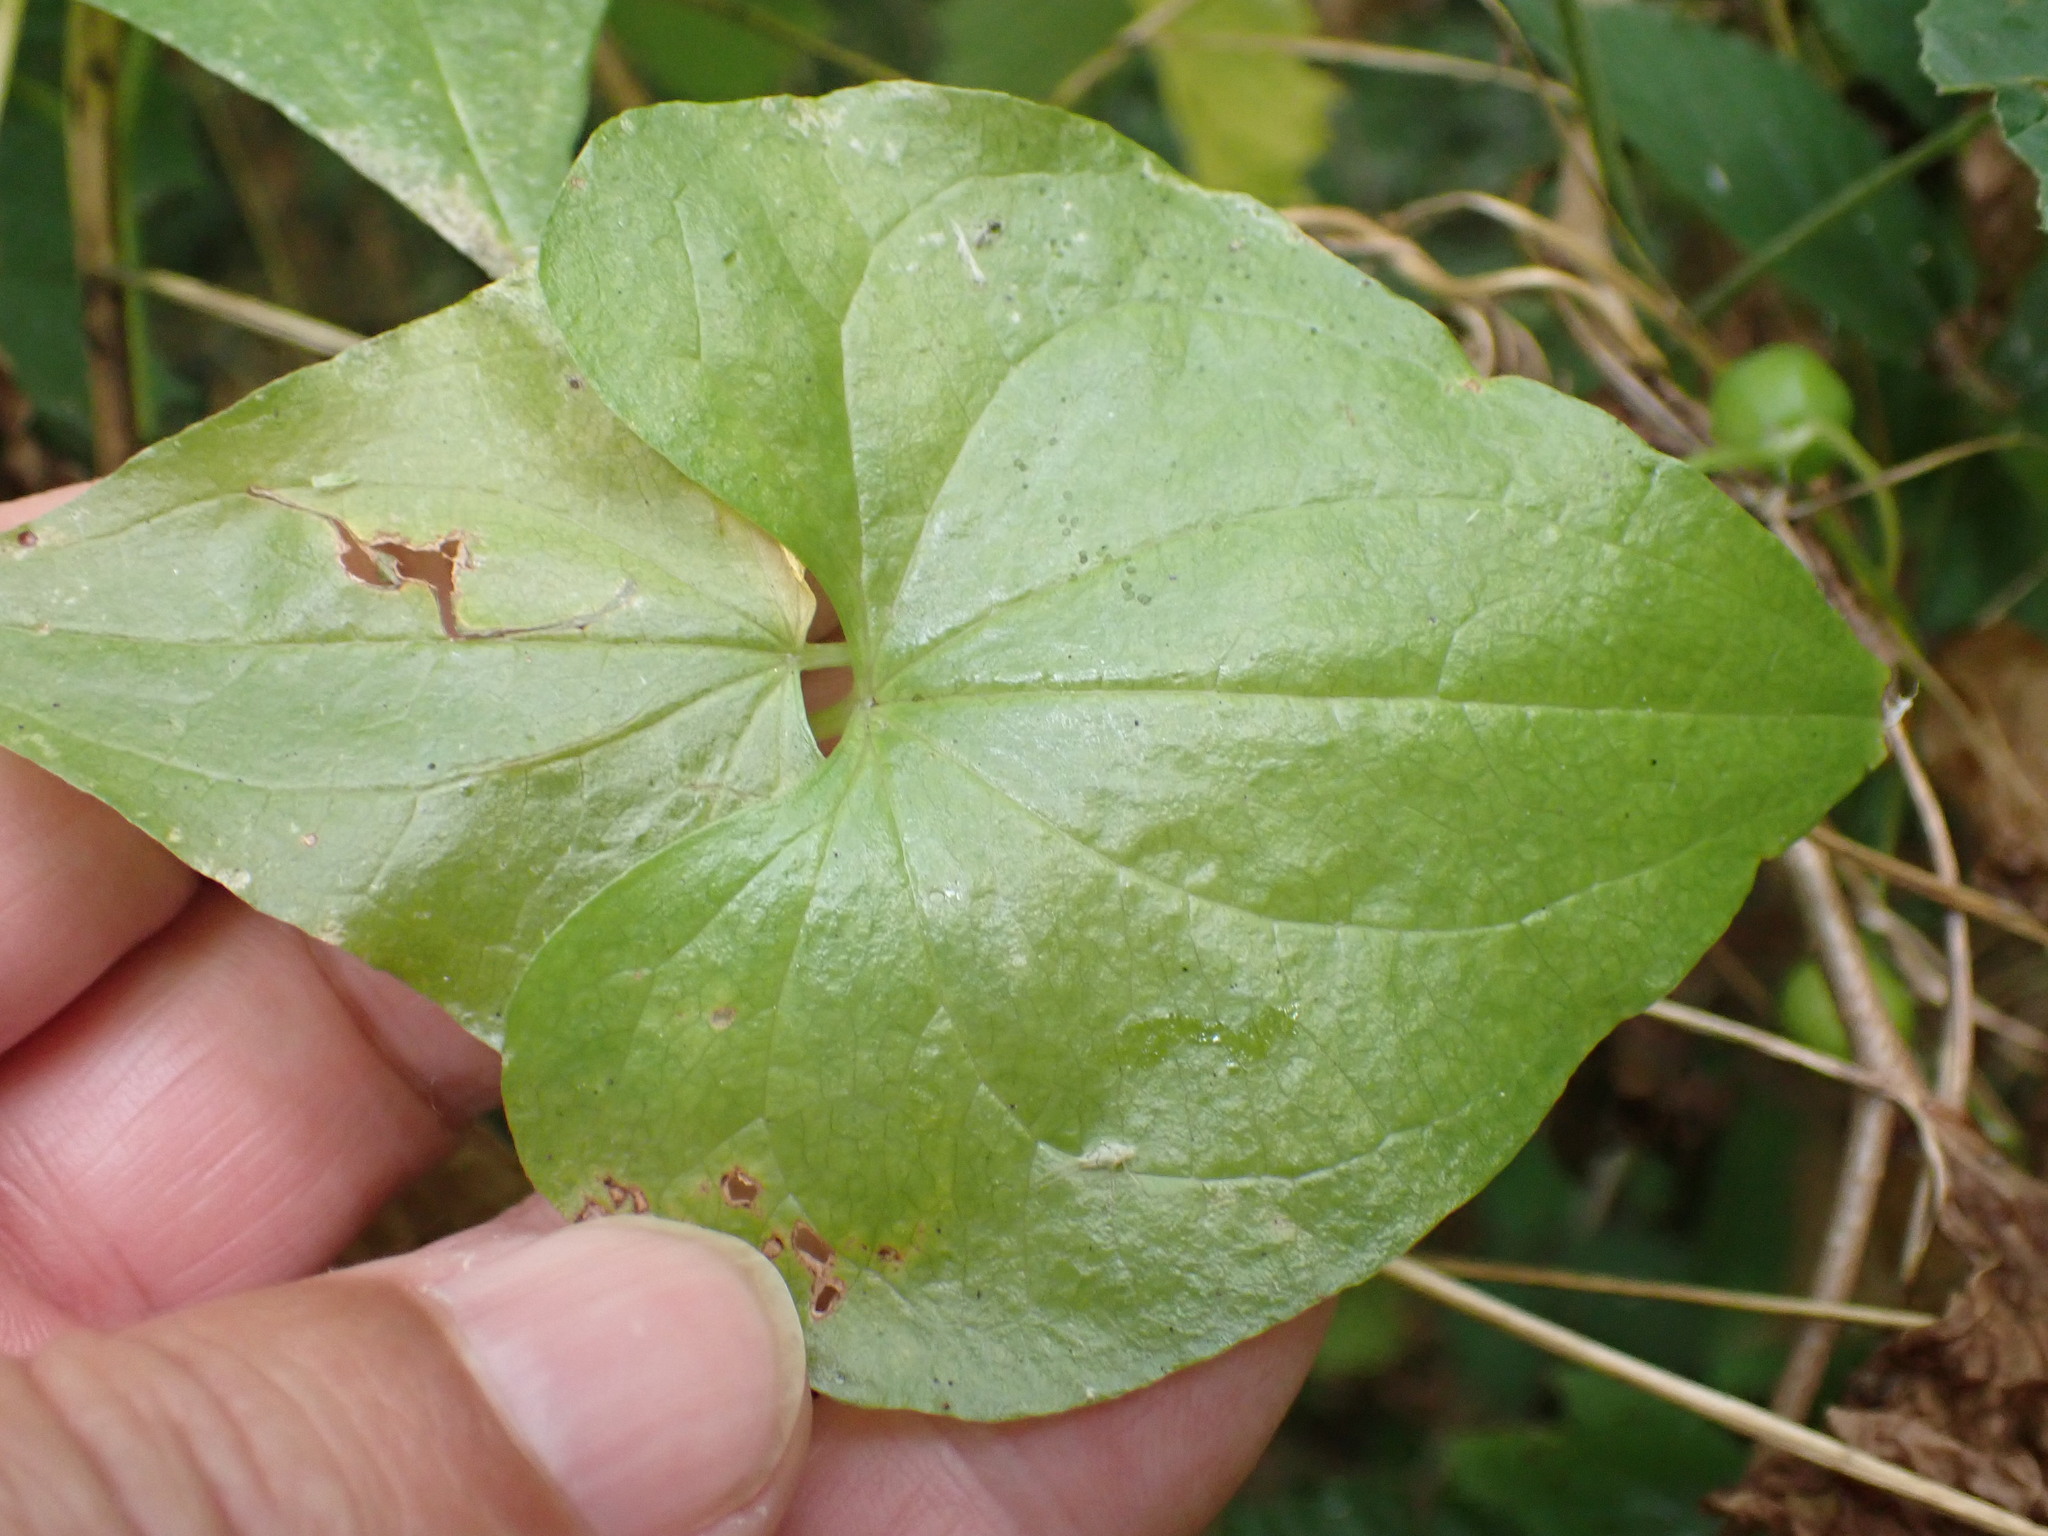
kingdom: Plantae
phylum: Tracheophyta
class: Liliopsida
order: Dioscoreales
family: Dioscoreaceae
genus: Dioscorea
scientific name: Dioscorea communis
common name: Black-bindweed
